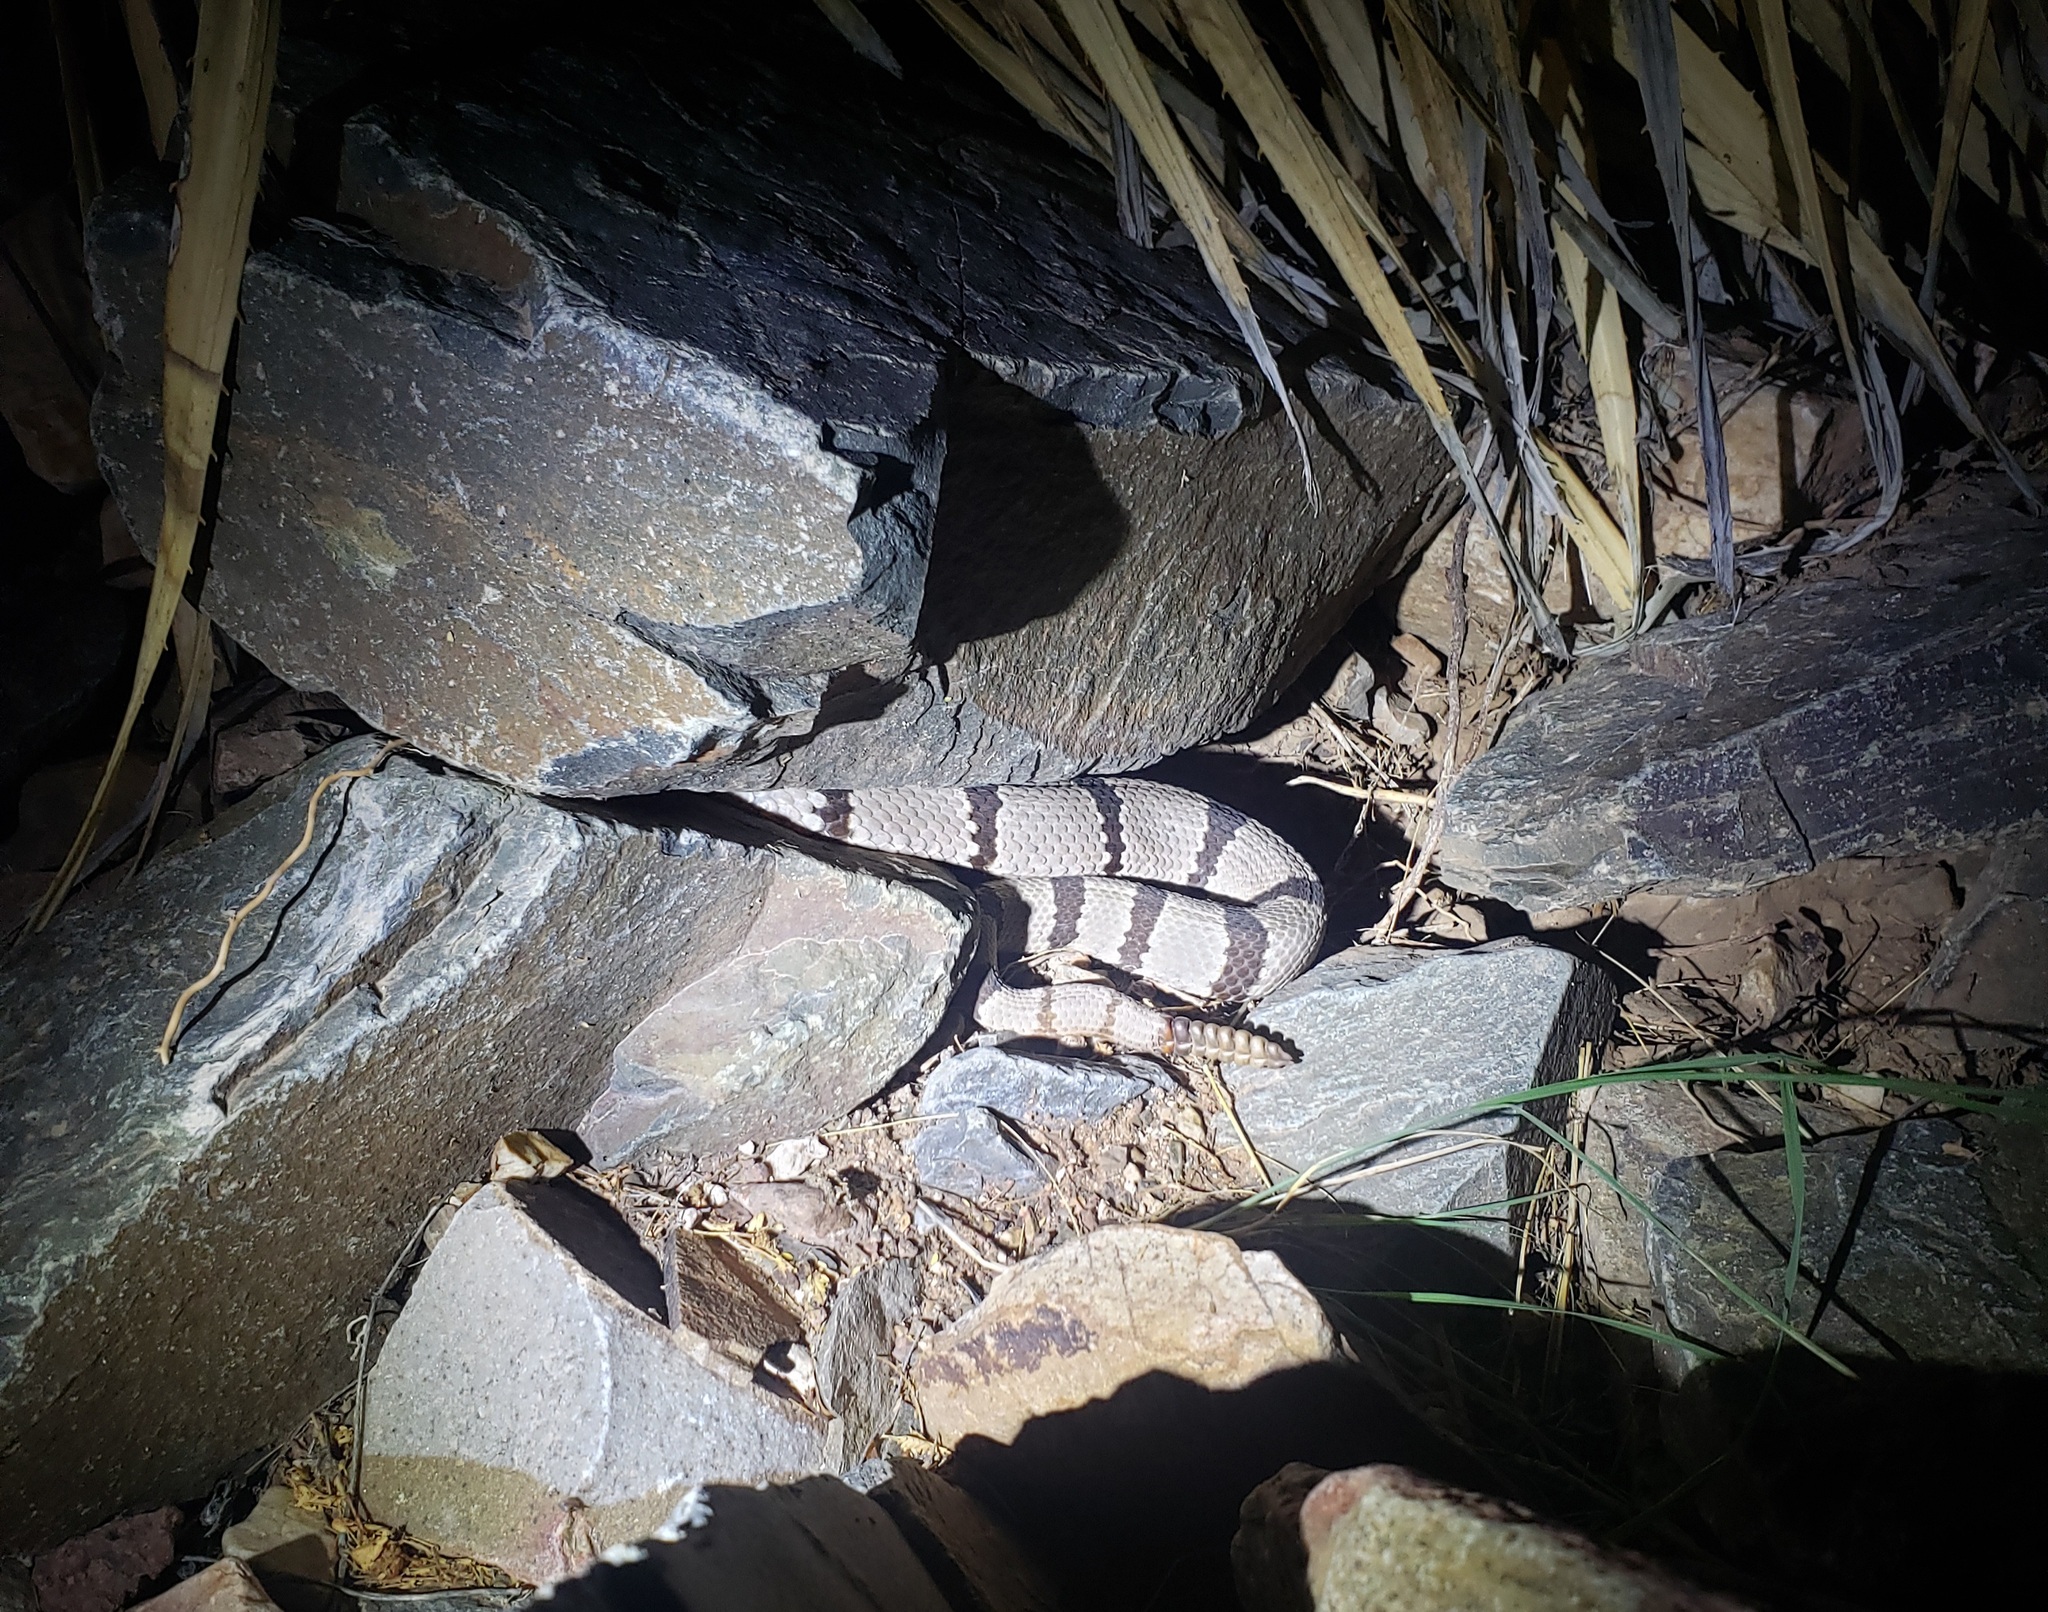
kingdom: Animalia
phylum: Chordata
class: Squamata
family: Viperidae
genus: Crotalus
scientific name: Crotalus lepidus
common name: Rock rattlesnake
